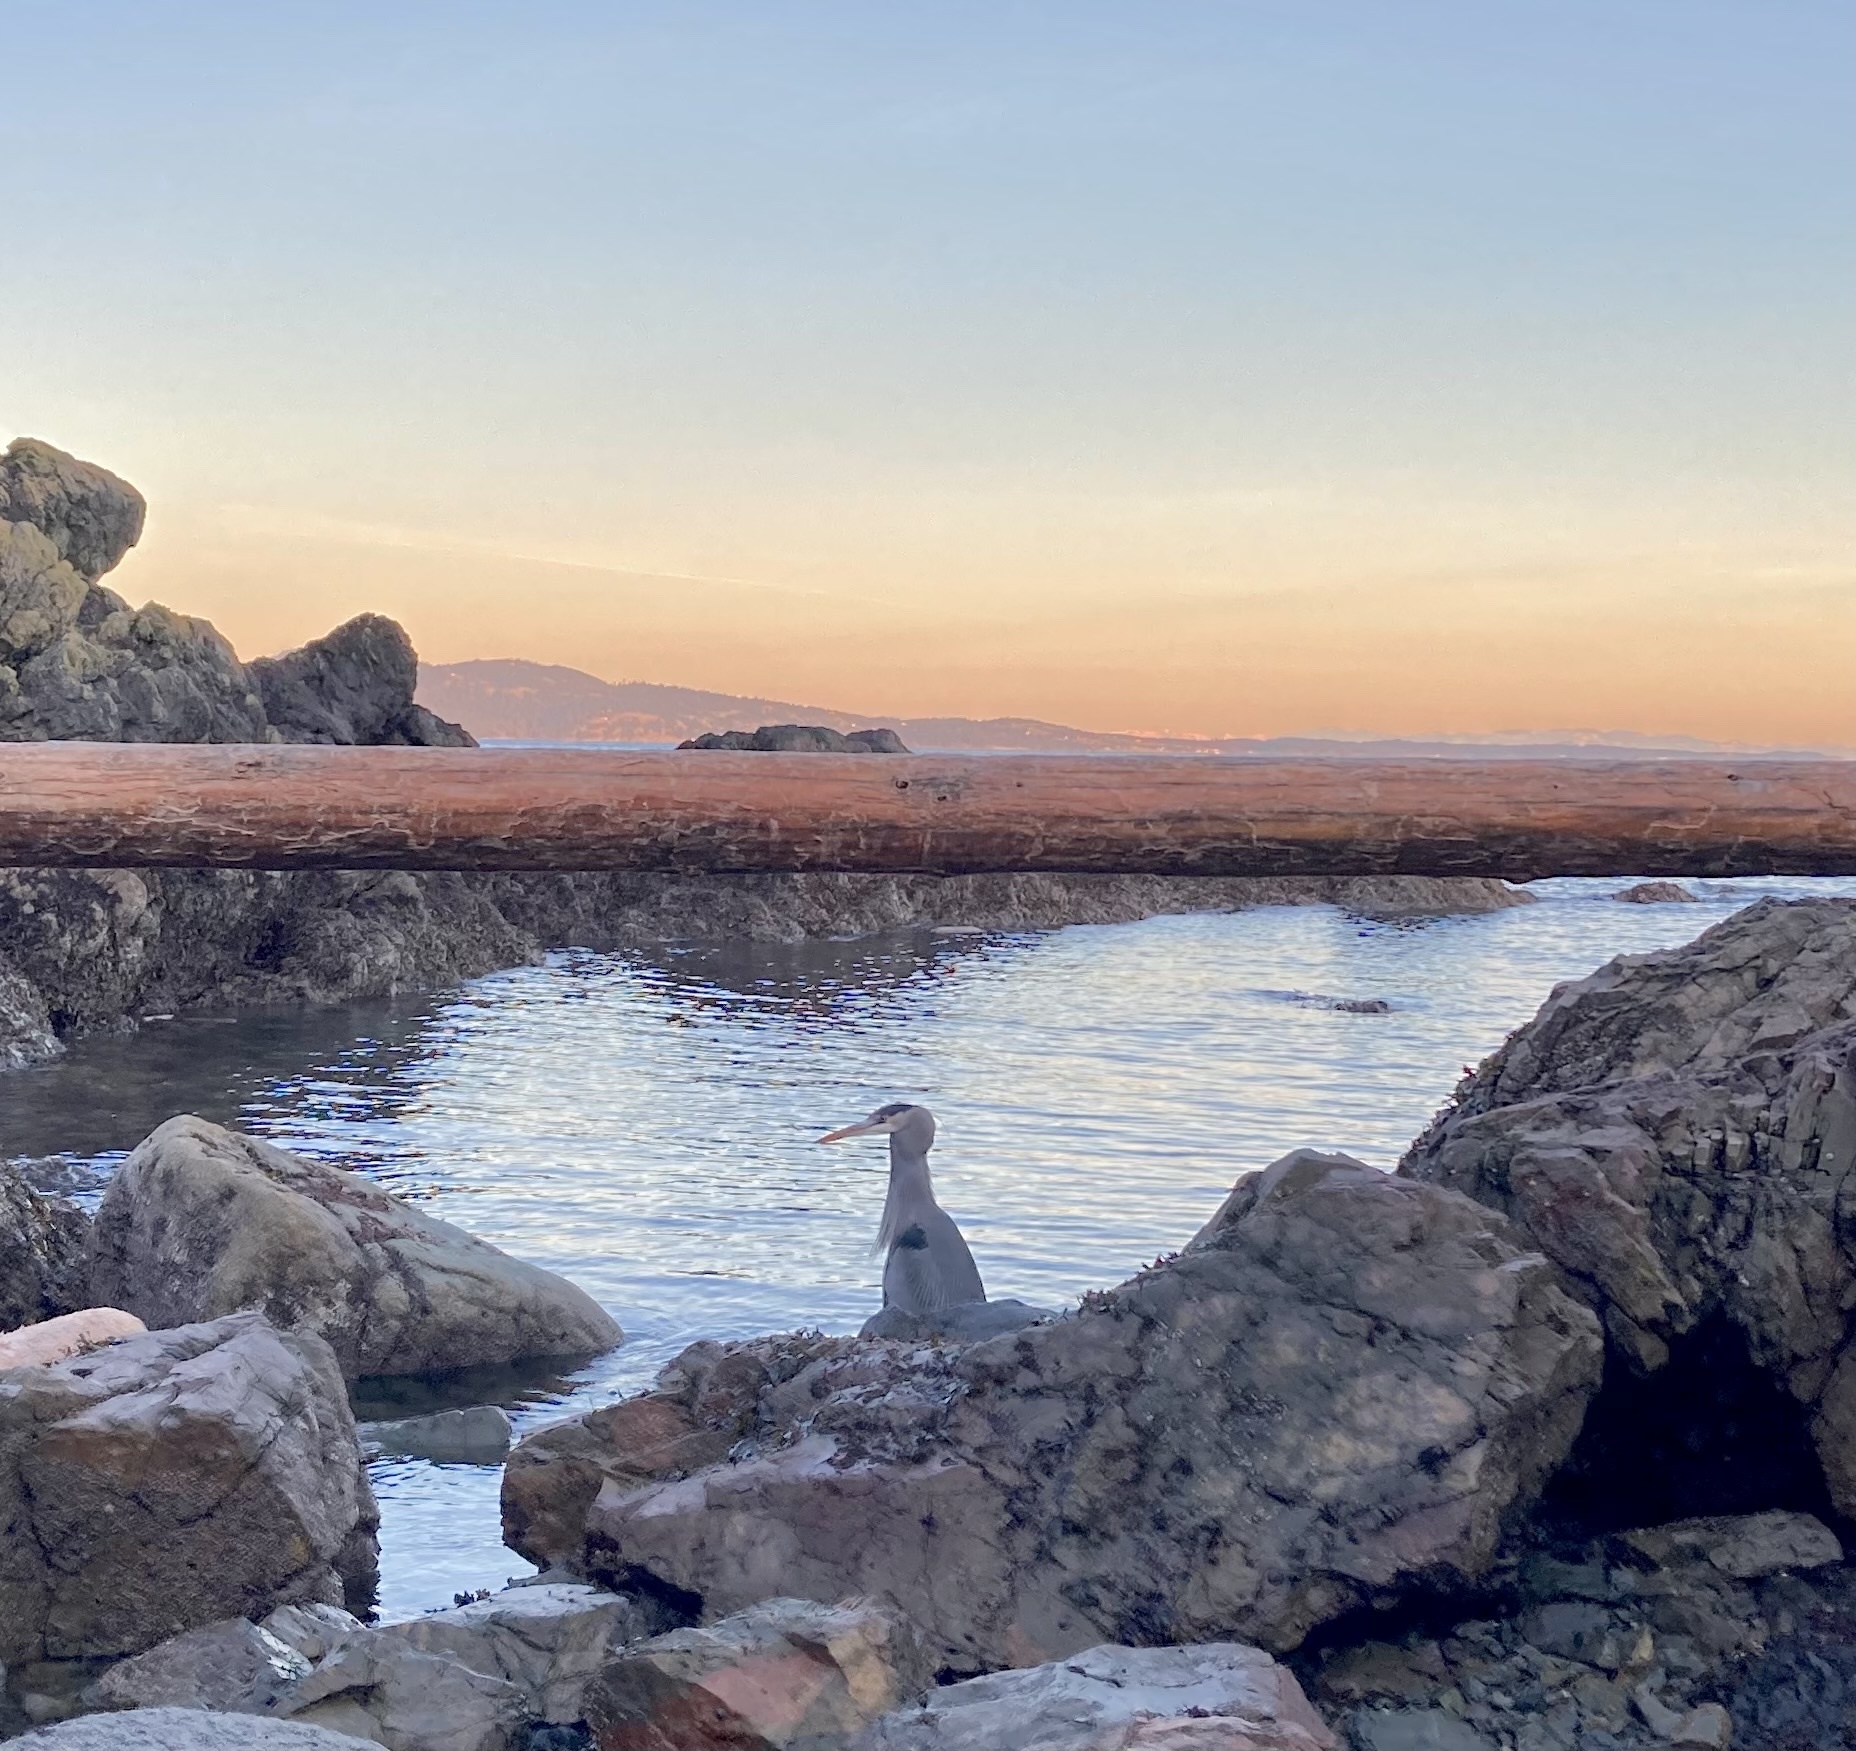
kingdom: Animalia
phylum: Chordata
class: Aves
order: Pelecaniformes
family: Ardeidae
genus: Ardea
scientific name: Ardea herodias
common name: Great blue heron
